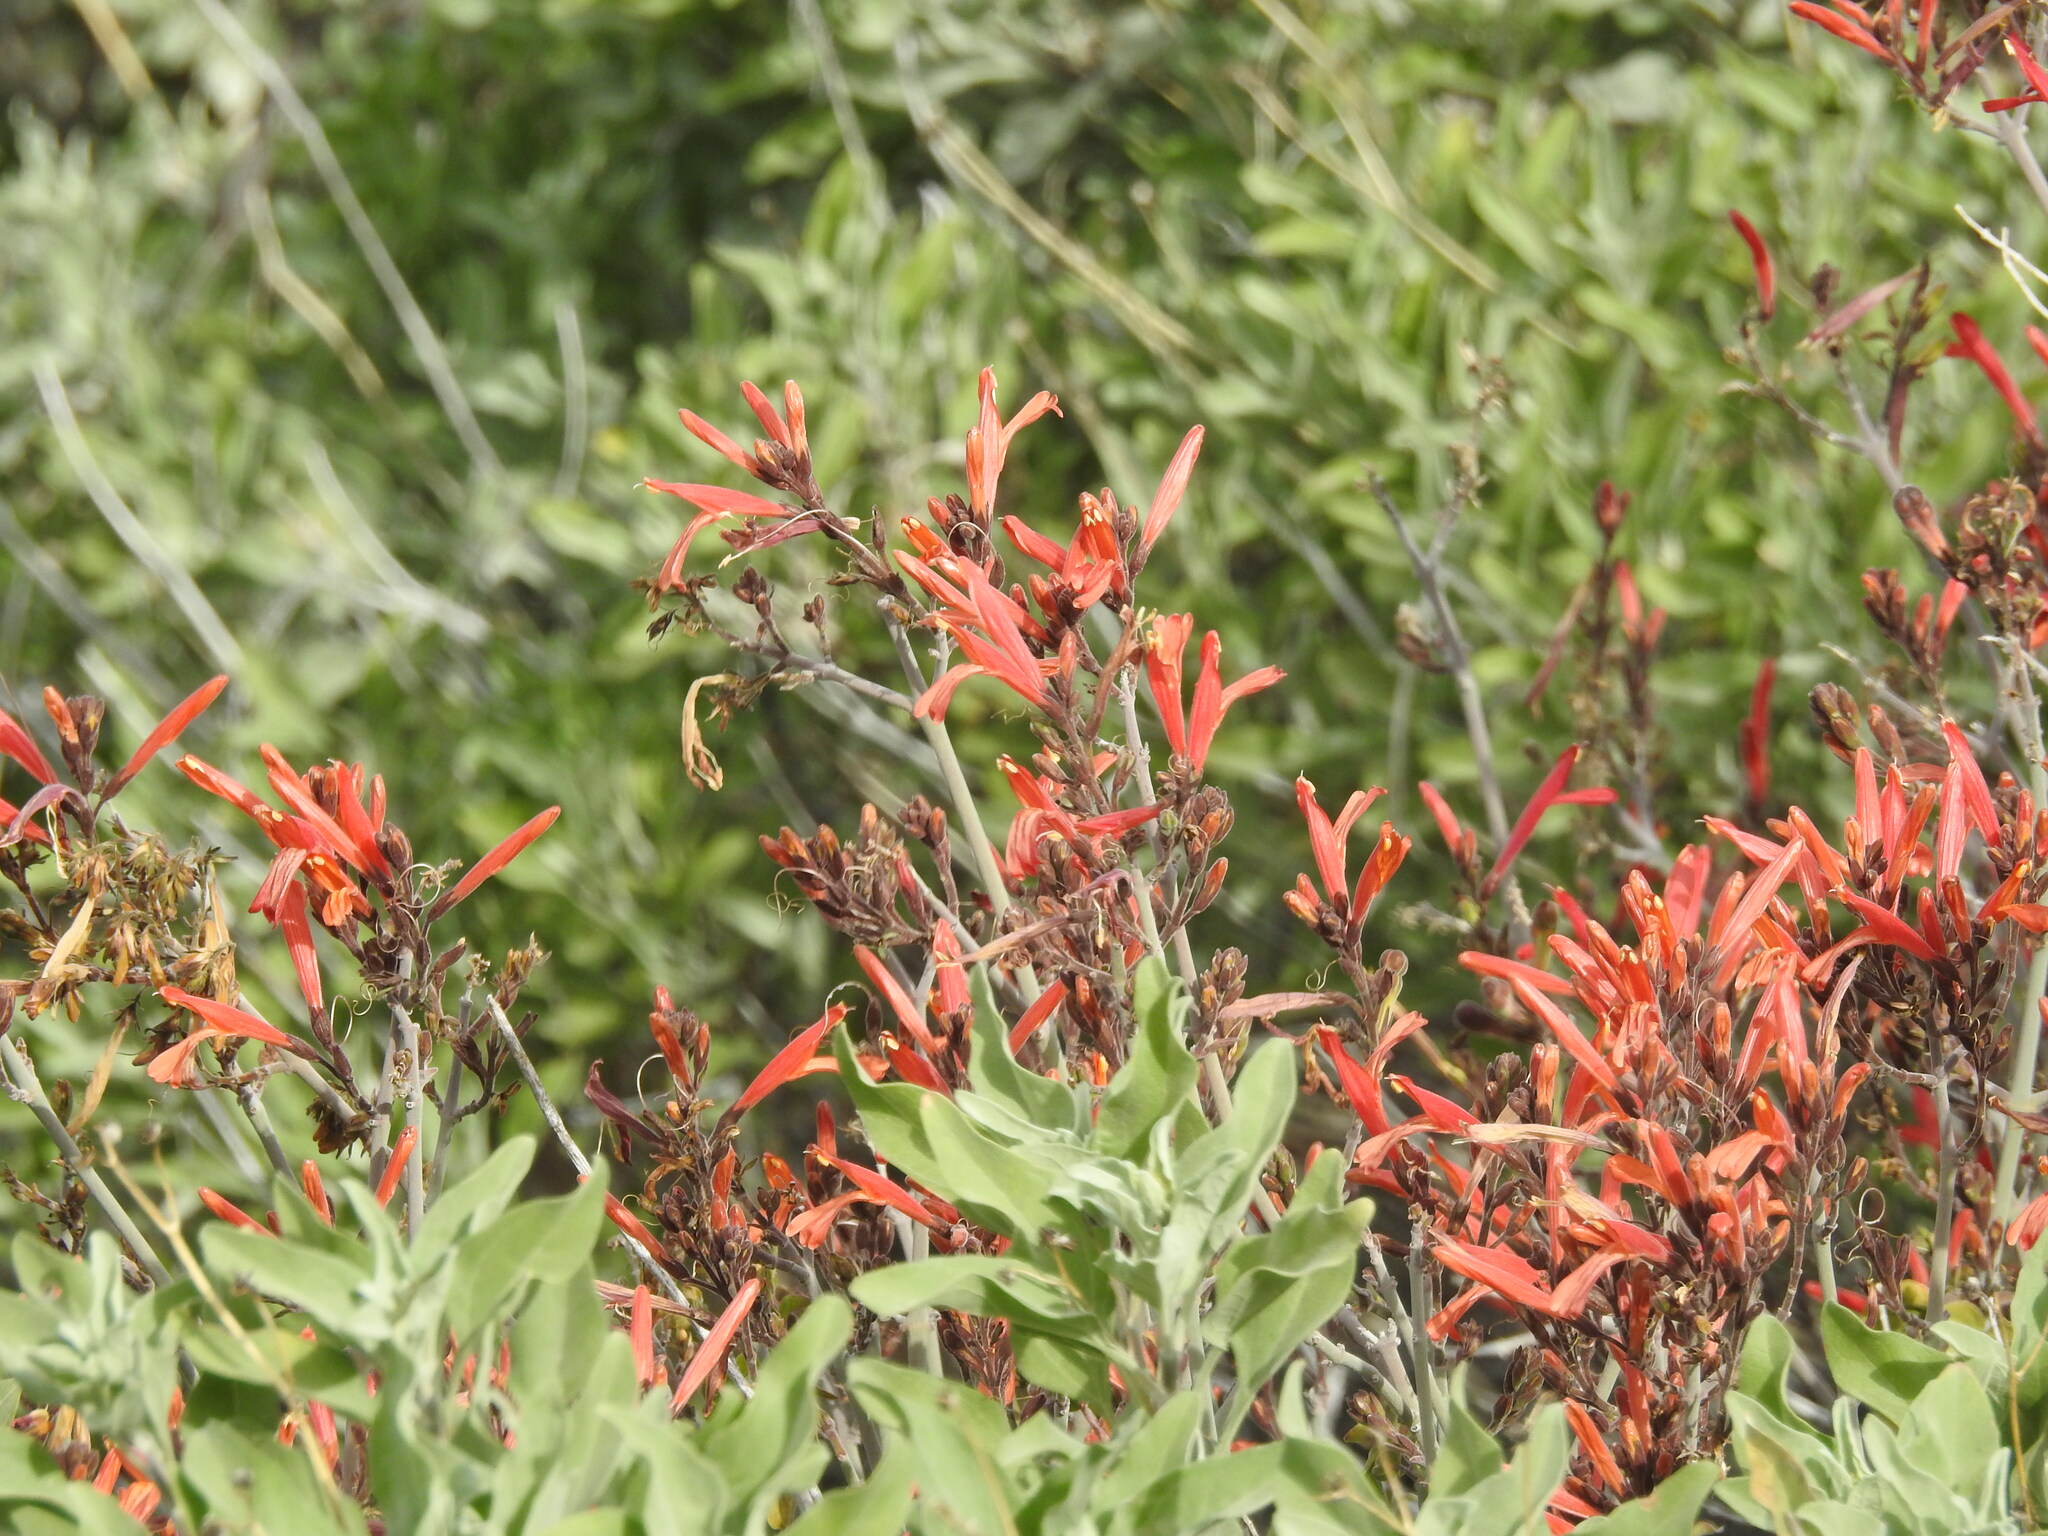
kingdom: Plantae
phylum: Tracheophyta
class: Magnoliopsida
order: Lamiales
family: Acanthaceae
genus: Justicia
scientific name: Justicia californica
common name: Chuparosa-honeysuckle
